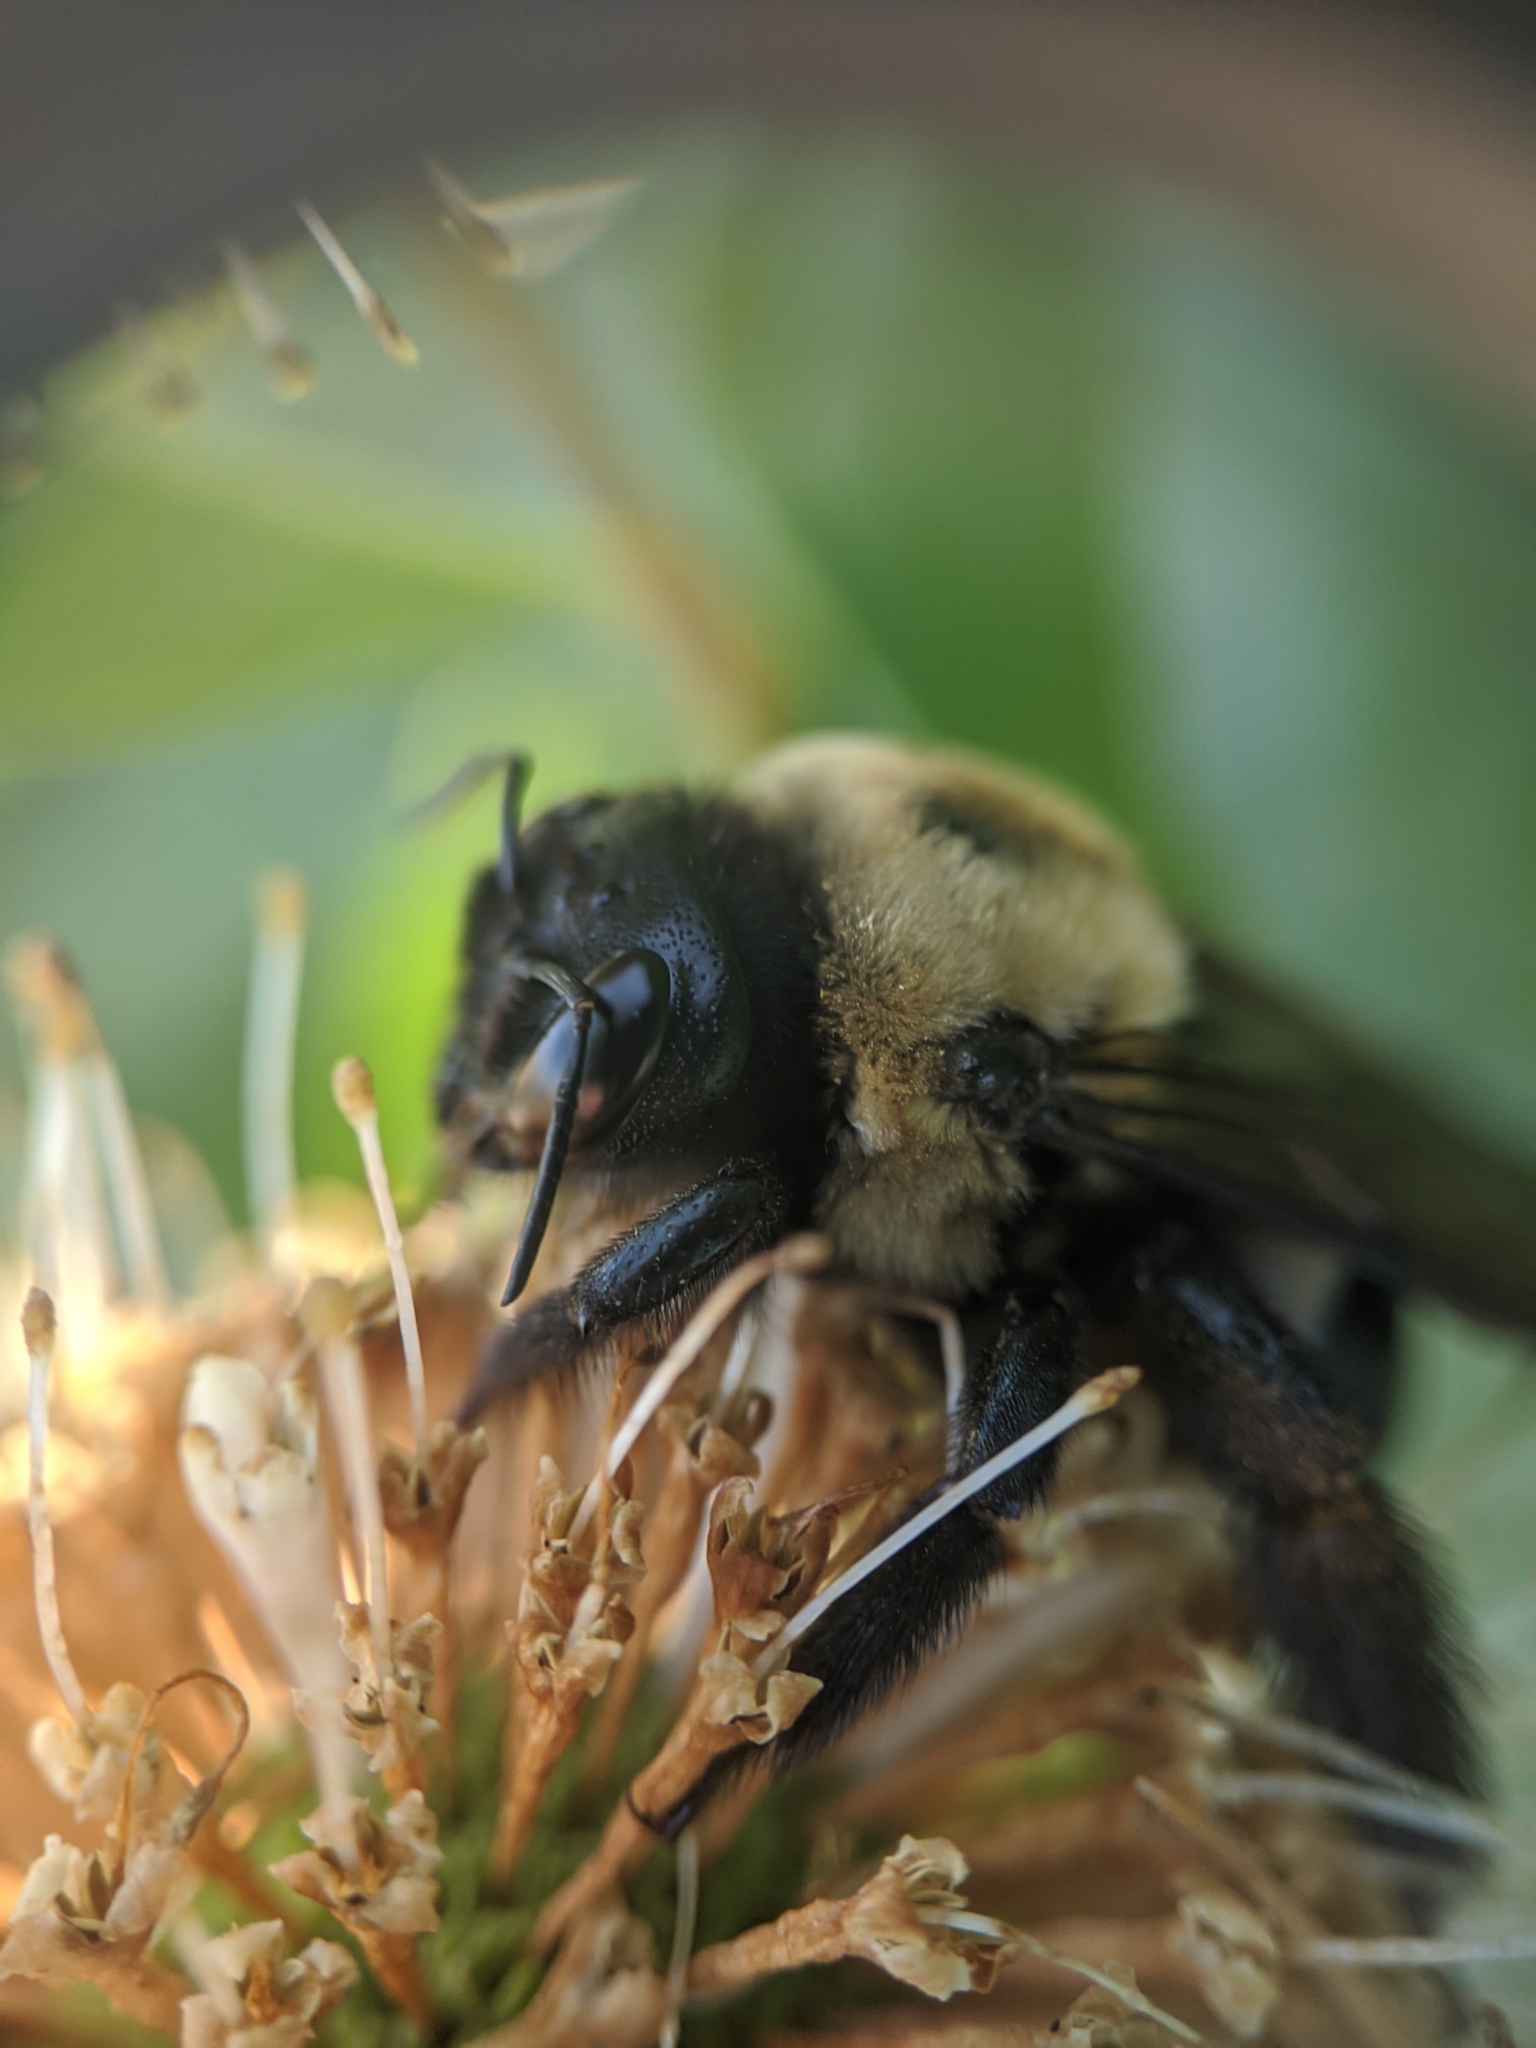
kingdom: Animalia
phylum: Arthropoda
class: Insecta
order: Hymenoptera
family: Apidae
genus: Xylocopa
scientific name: Xylocopa virginica
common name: Carpenter bee
